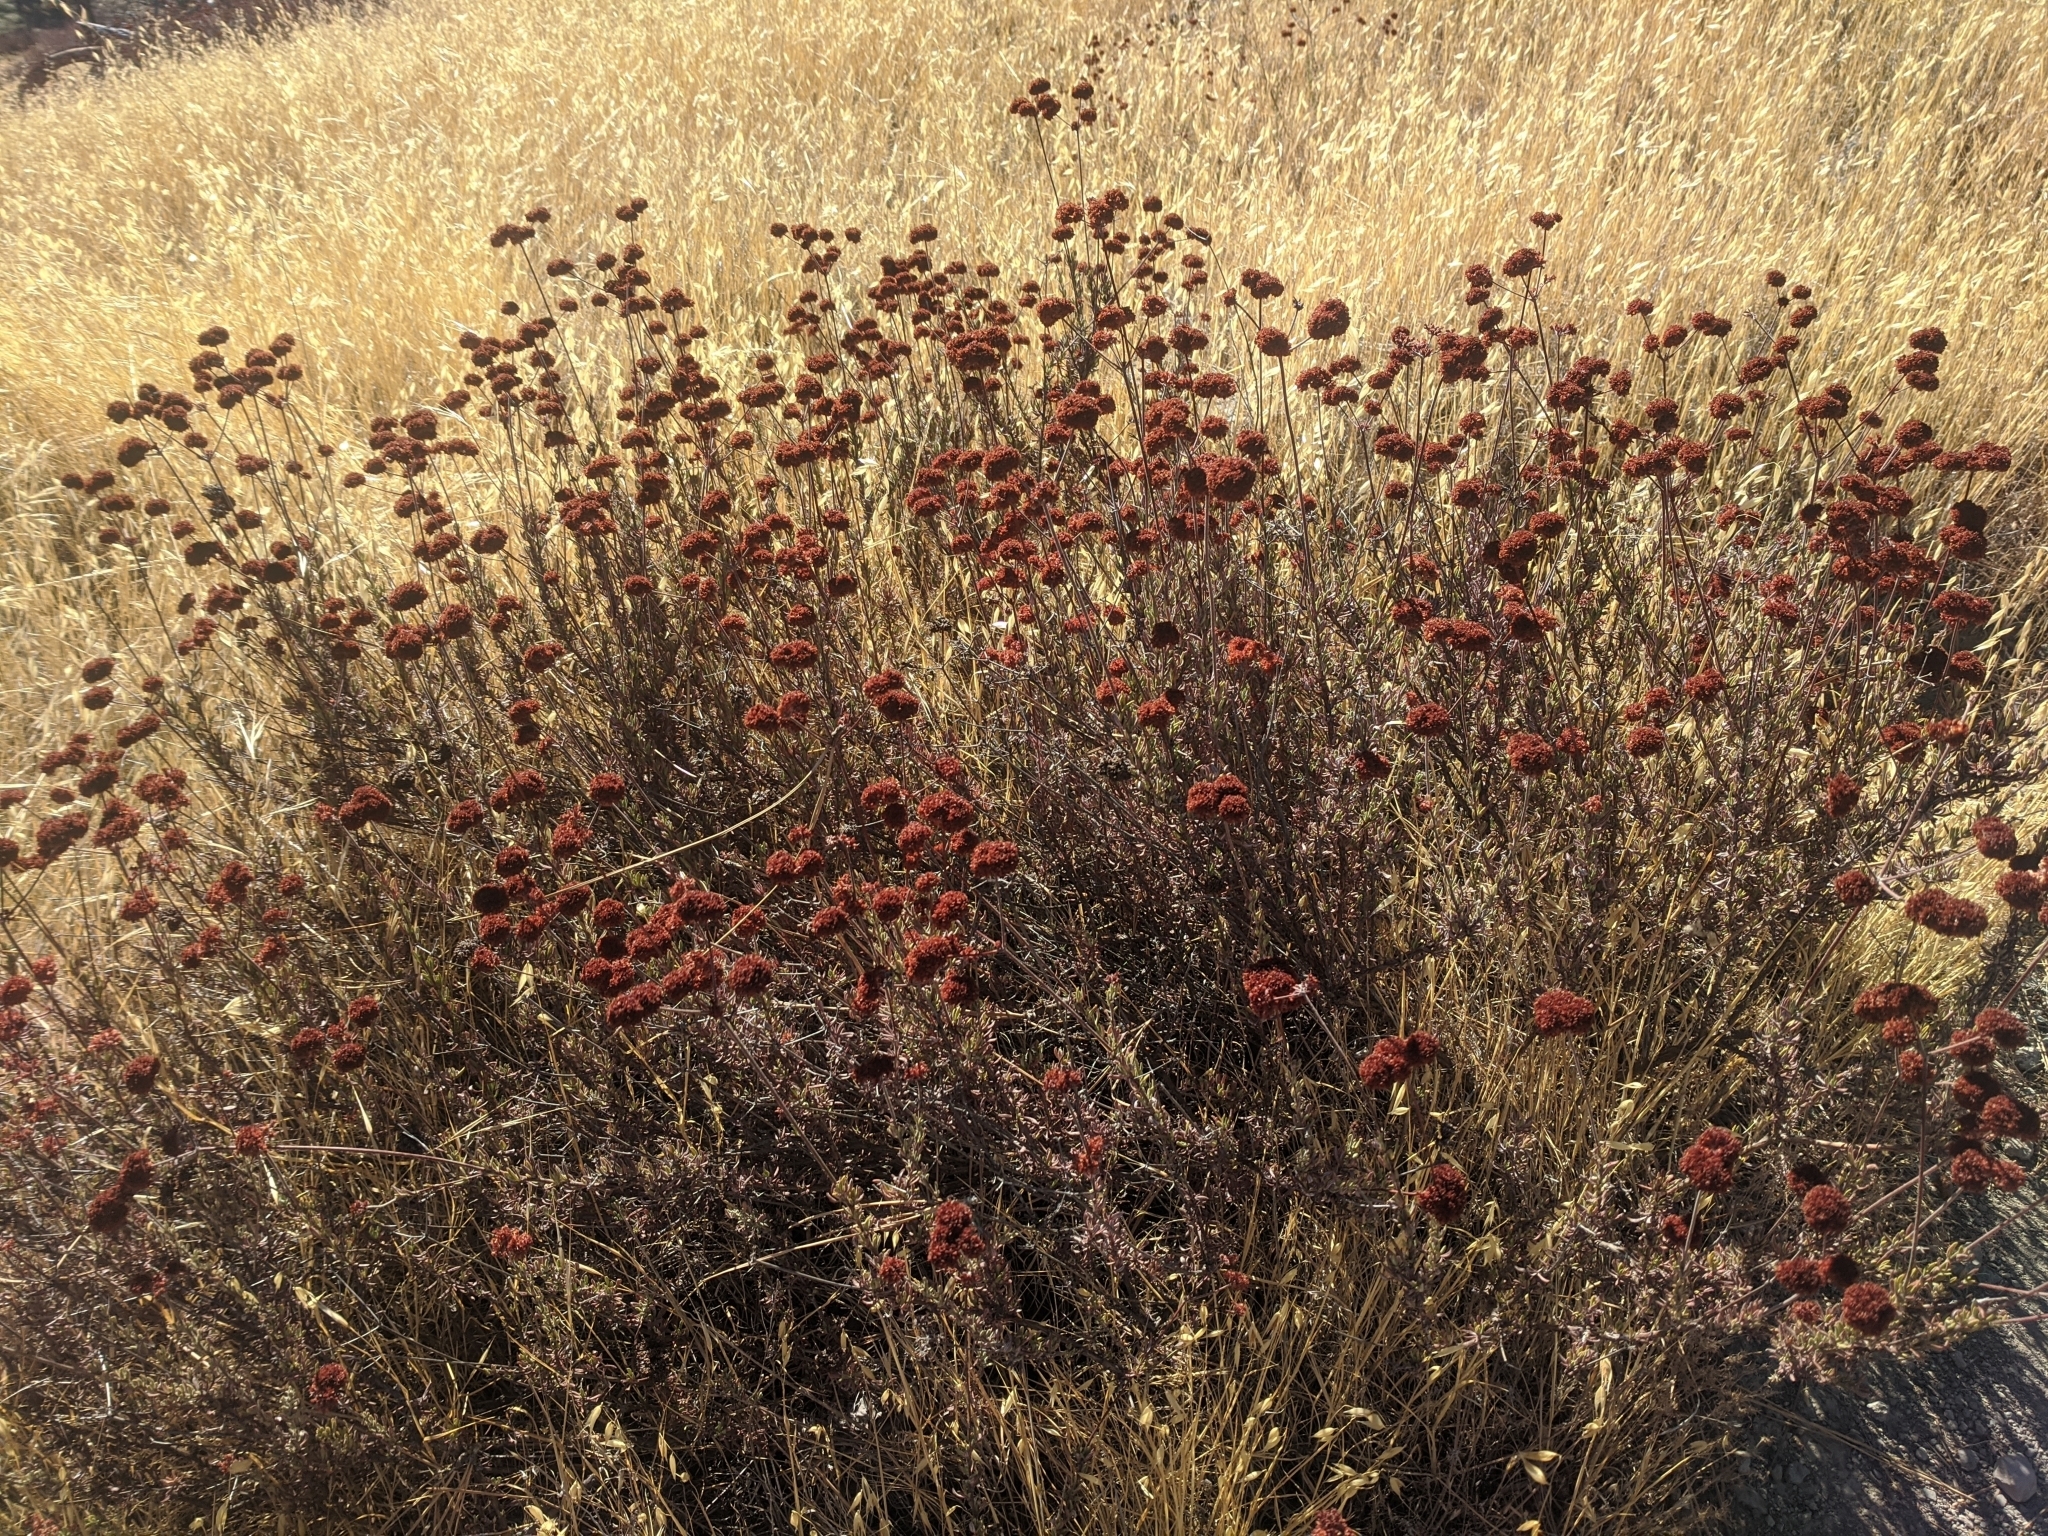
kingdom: Plantae
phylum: Tracheophyta
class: Magnoliopsida
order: Caryophyllales
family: Polygonaceae
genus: Eriogonum
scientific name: Eriogonum fasciculatum
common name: California wild buckwheat
